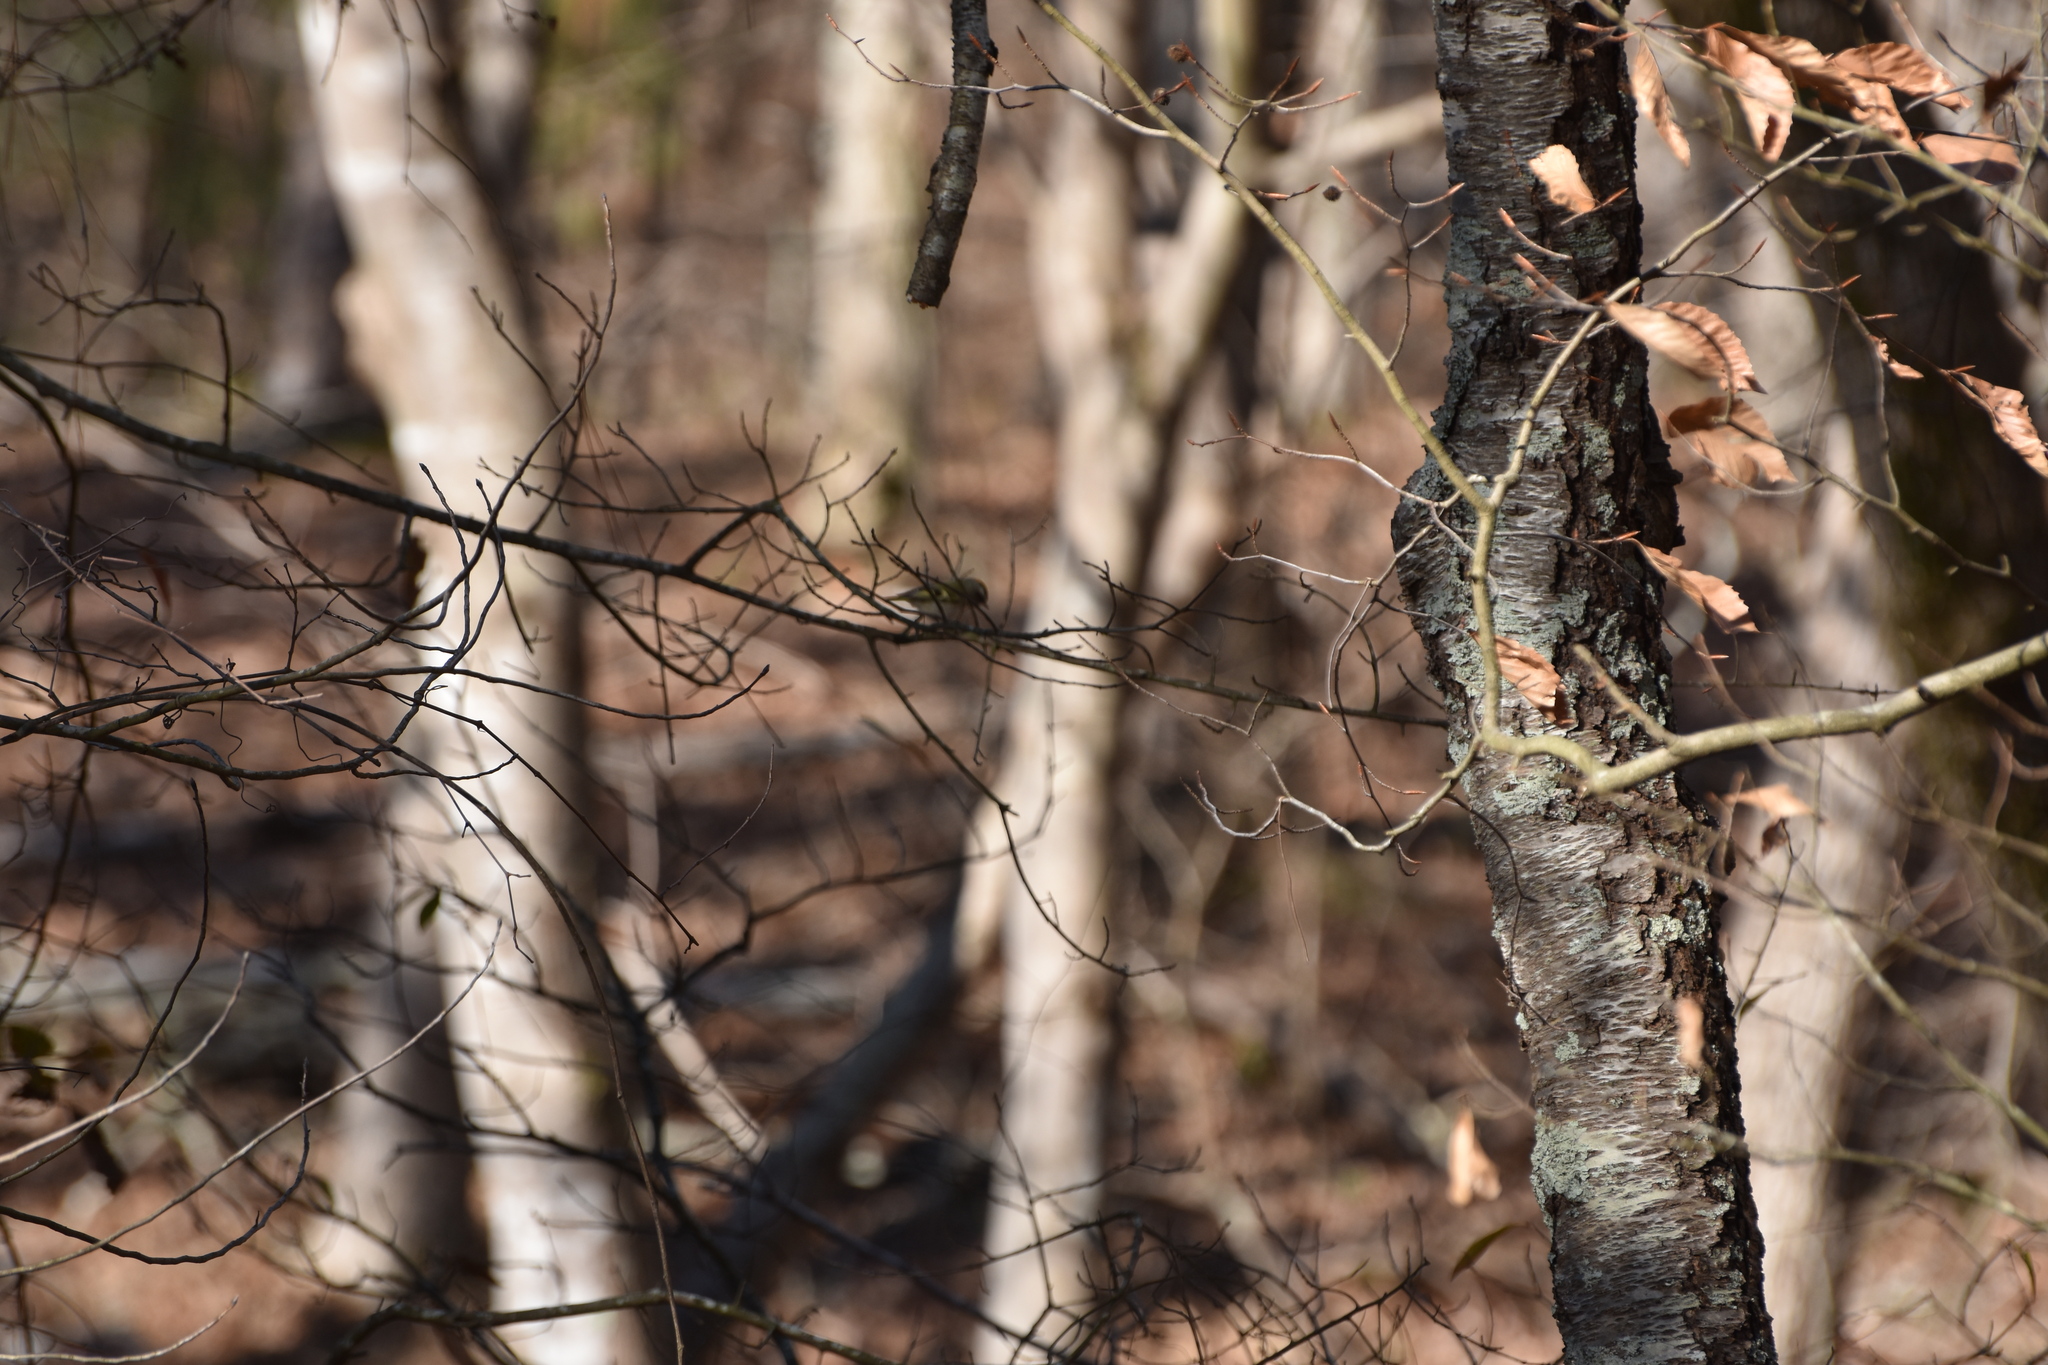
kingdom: Animalia
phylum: Chordata
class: Aves
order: Passeriformes
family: Regulidae
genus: Regulus
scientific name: Regulus satrapa
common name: Golden-crowned kinglet
